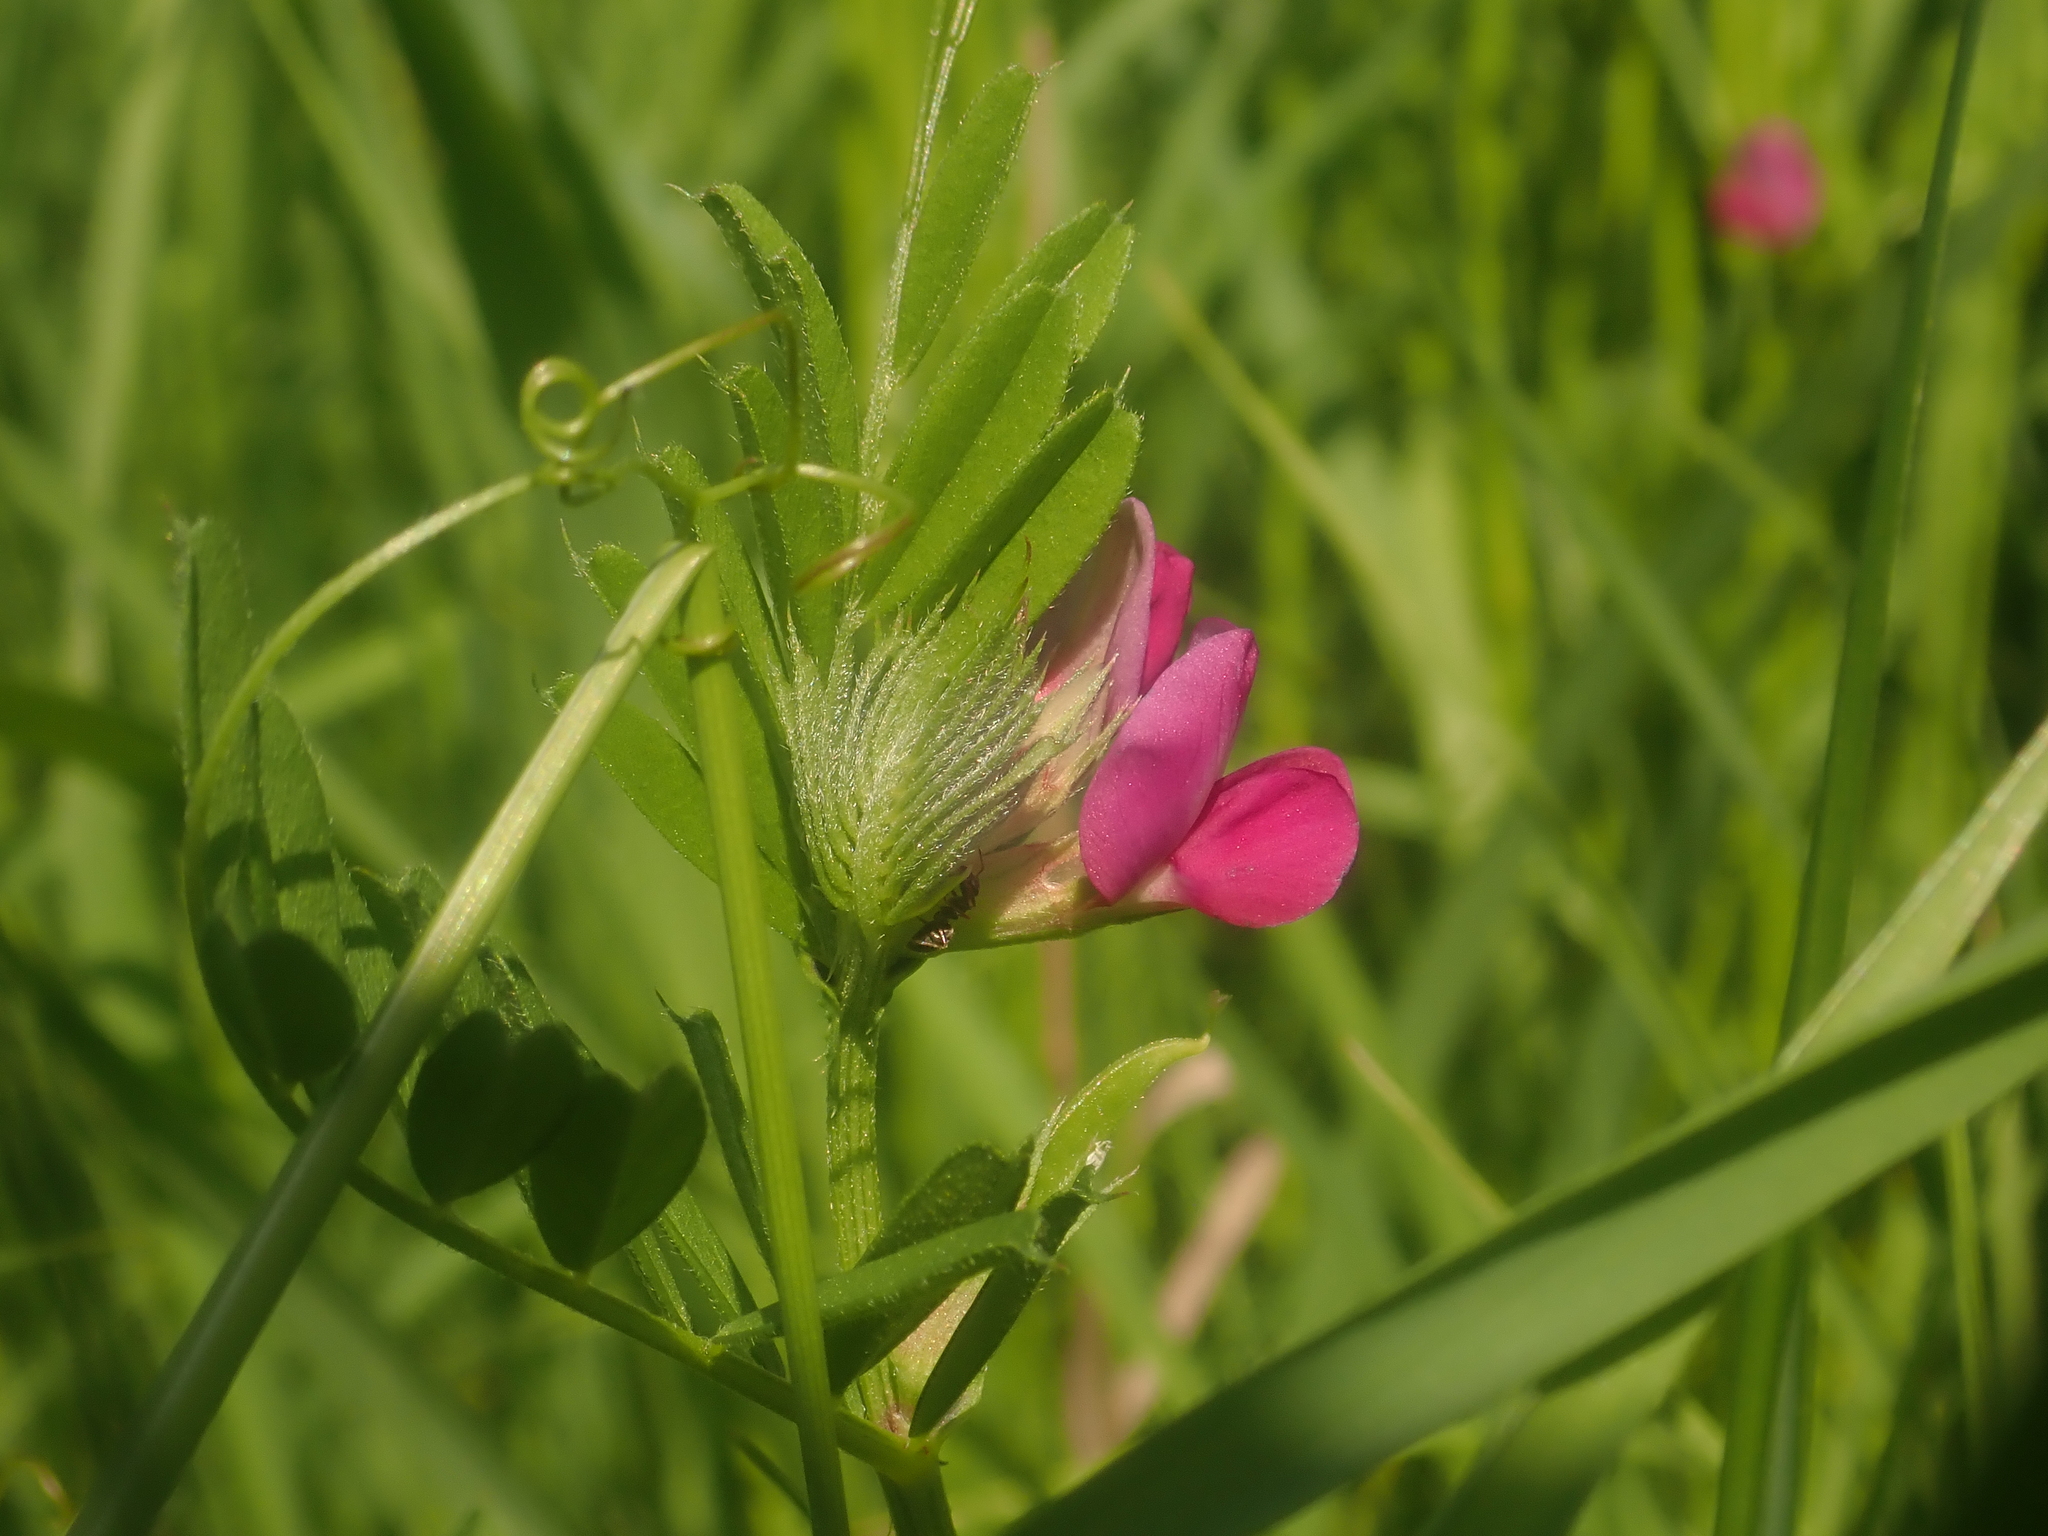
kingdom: Plantae
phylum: Tracheophyta
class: Magnoliopsida
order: Fabales
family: Fabaceae
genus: Vicia
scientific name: Vicia sativa
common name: Garden vetch
